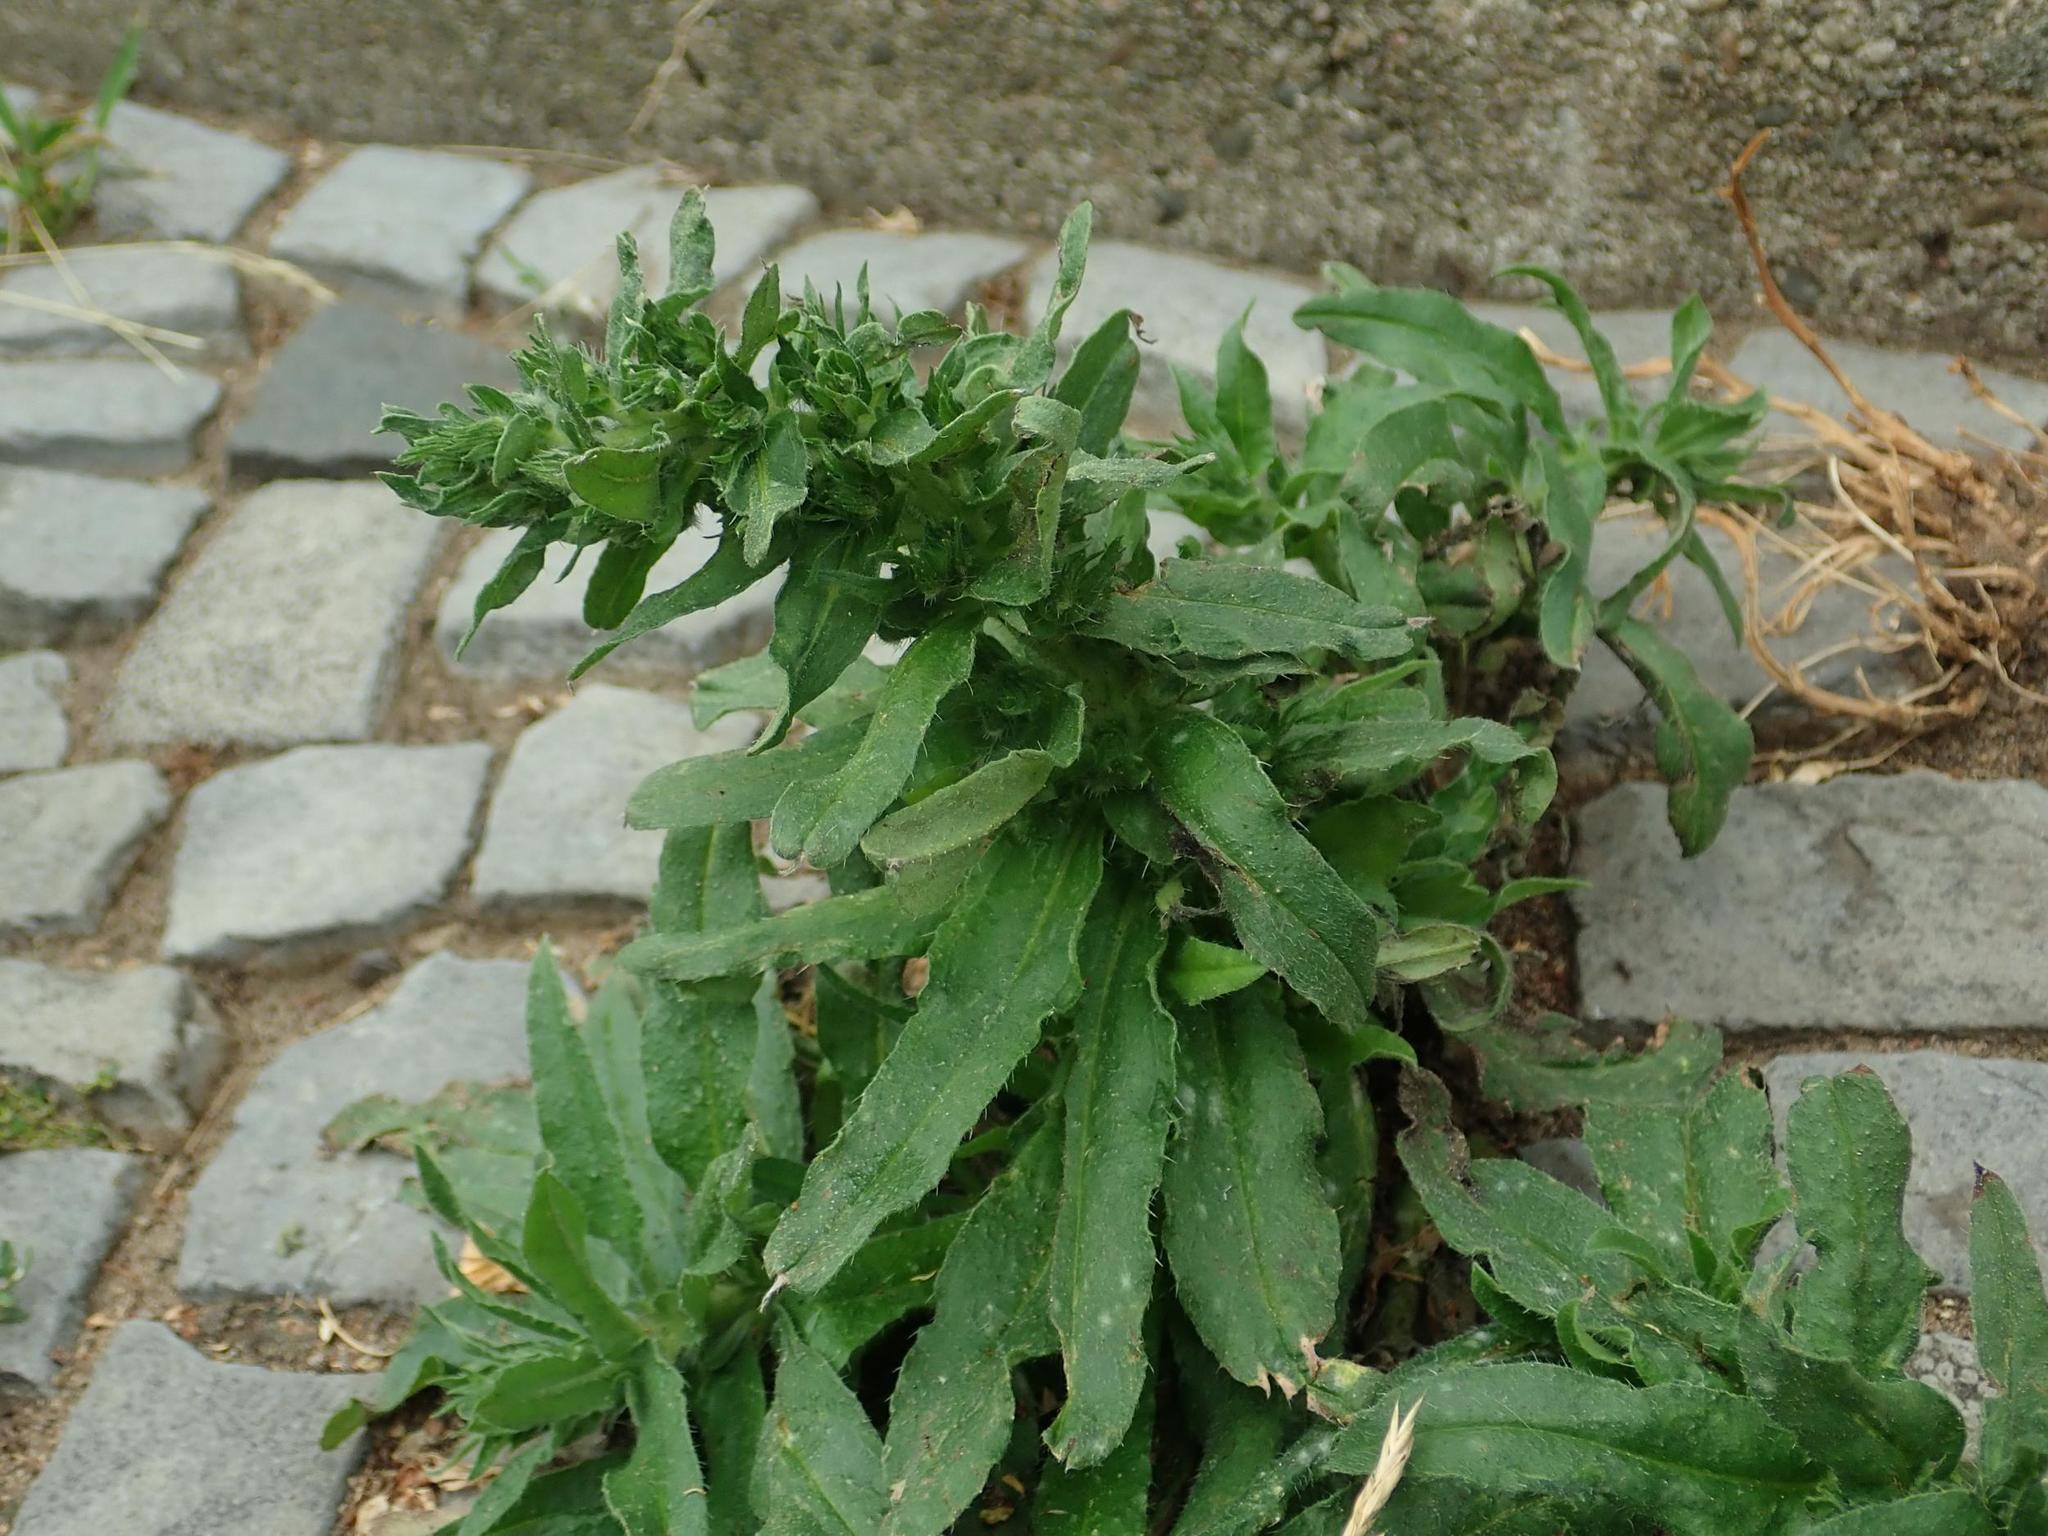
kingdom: Plantae
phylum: Tracheophyta
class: Magnoliopsida
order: Boraginales
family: Boraginaceae
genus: Echium
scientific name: Echium vulgare
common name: Common viper's bugloss
